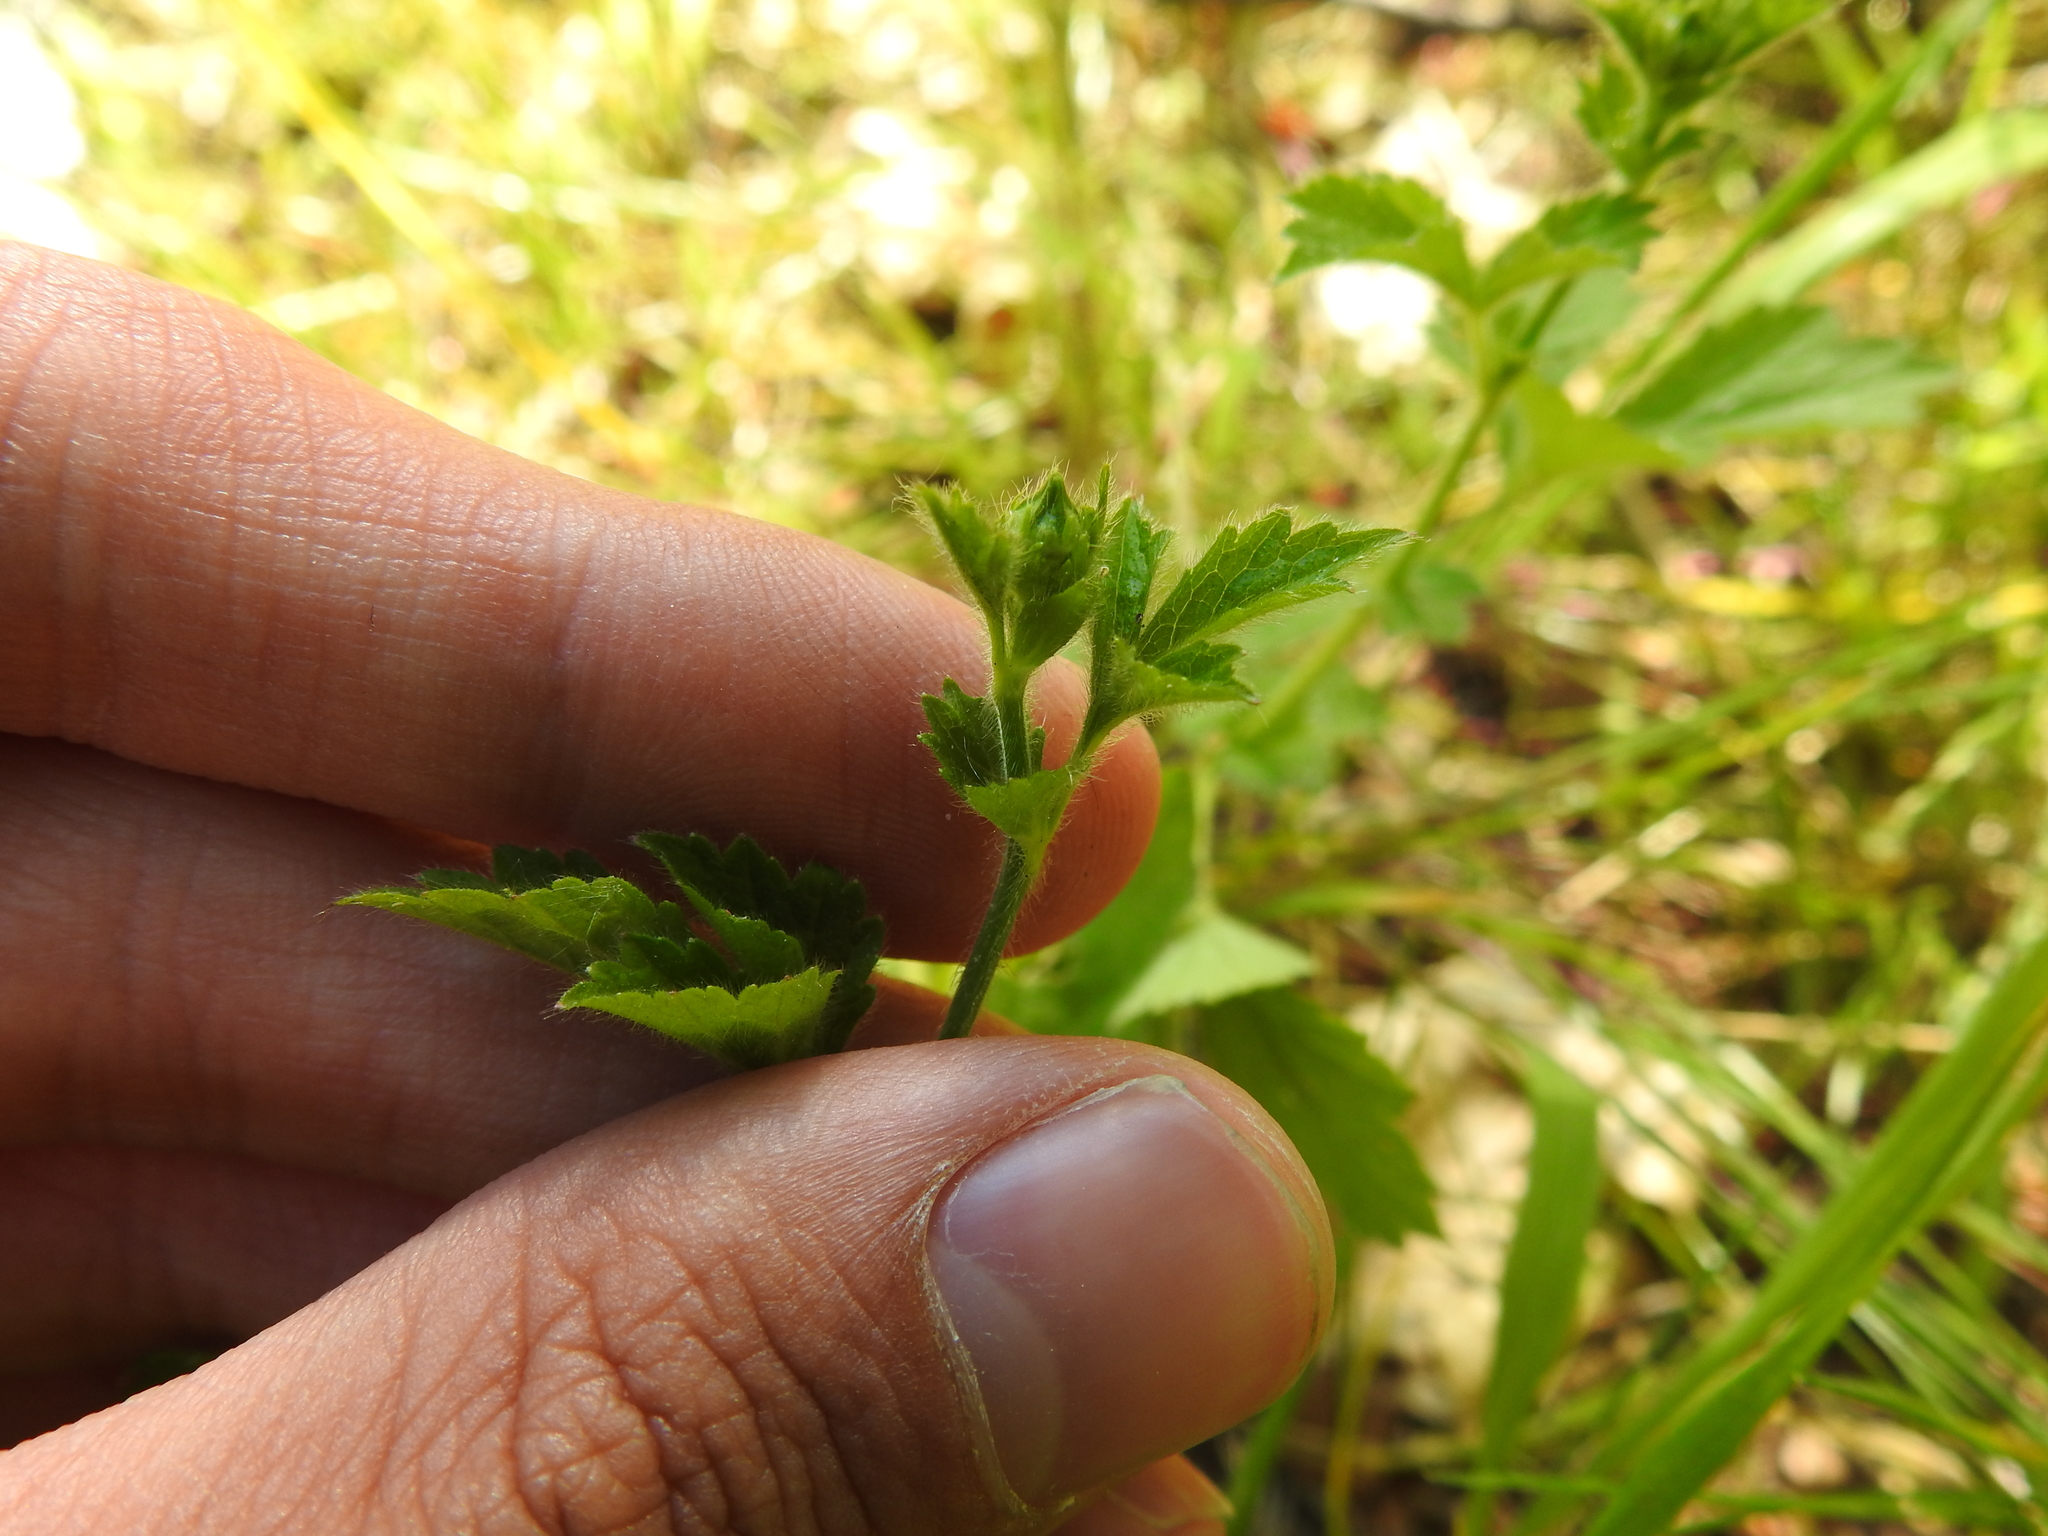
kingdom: Plantae
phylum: Tracheophyta
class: Magnoliopsida
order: Rosales
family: Rosaceae
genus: Geum
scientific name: Geum urbanum
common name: Wood avens
